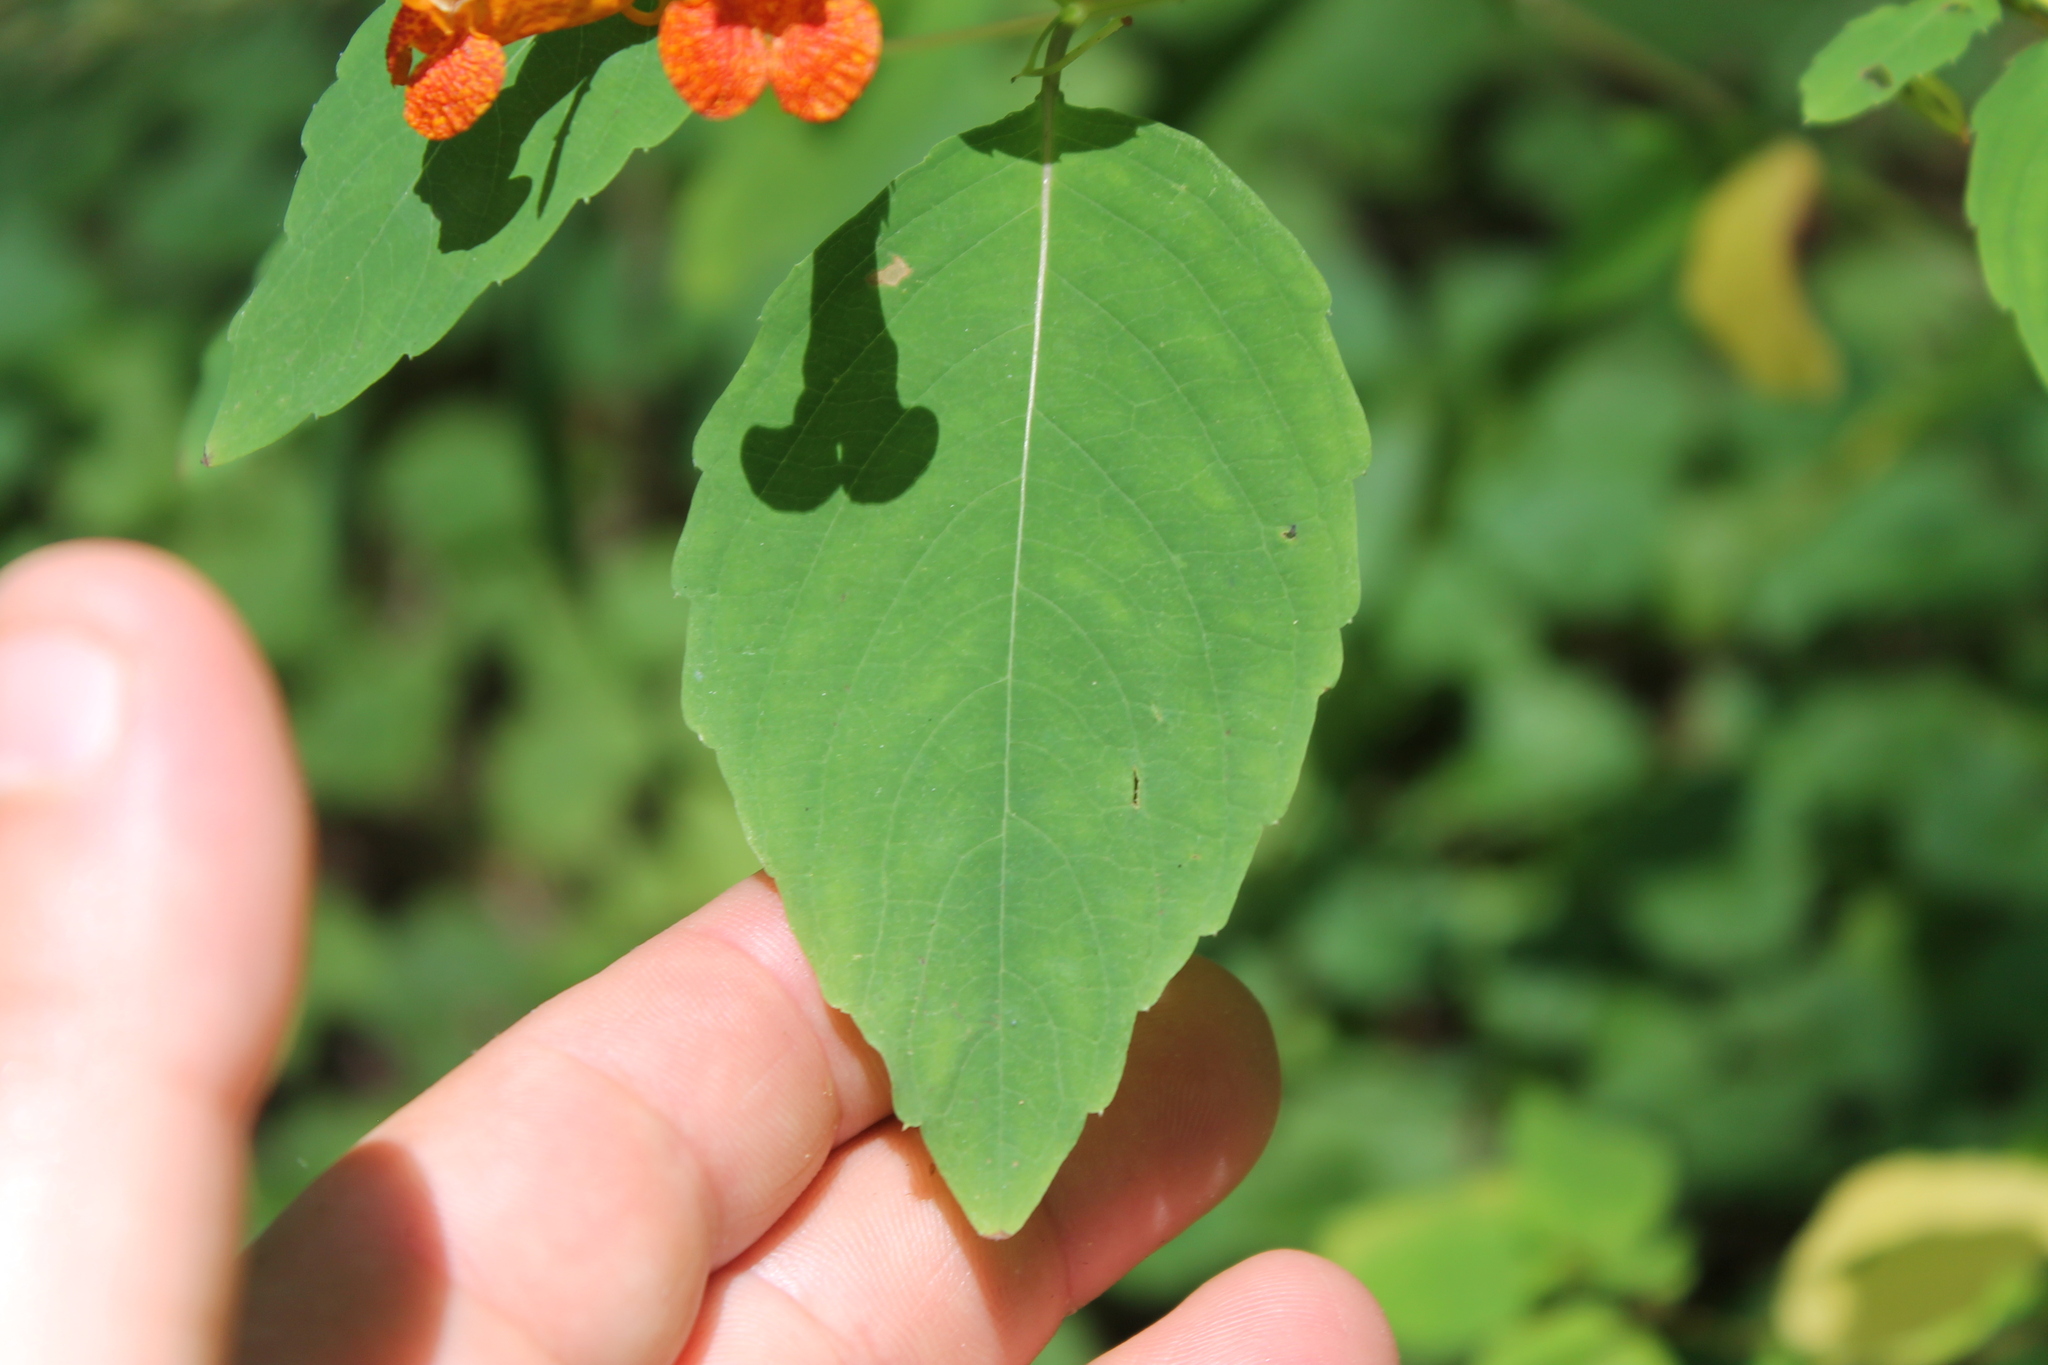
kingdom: Plantae
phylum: Tracheophyta
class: Magnoliopsida
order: Ericales
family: Balsaminaceae
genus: Impatiens
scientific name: Impatiens capensis
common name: Orange balsam
